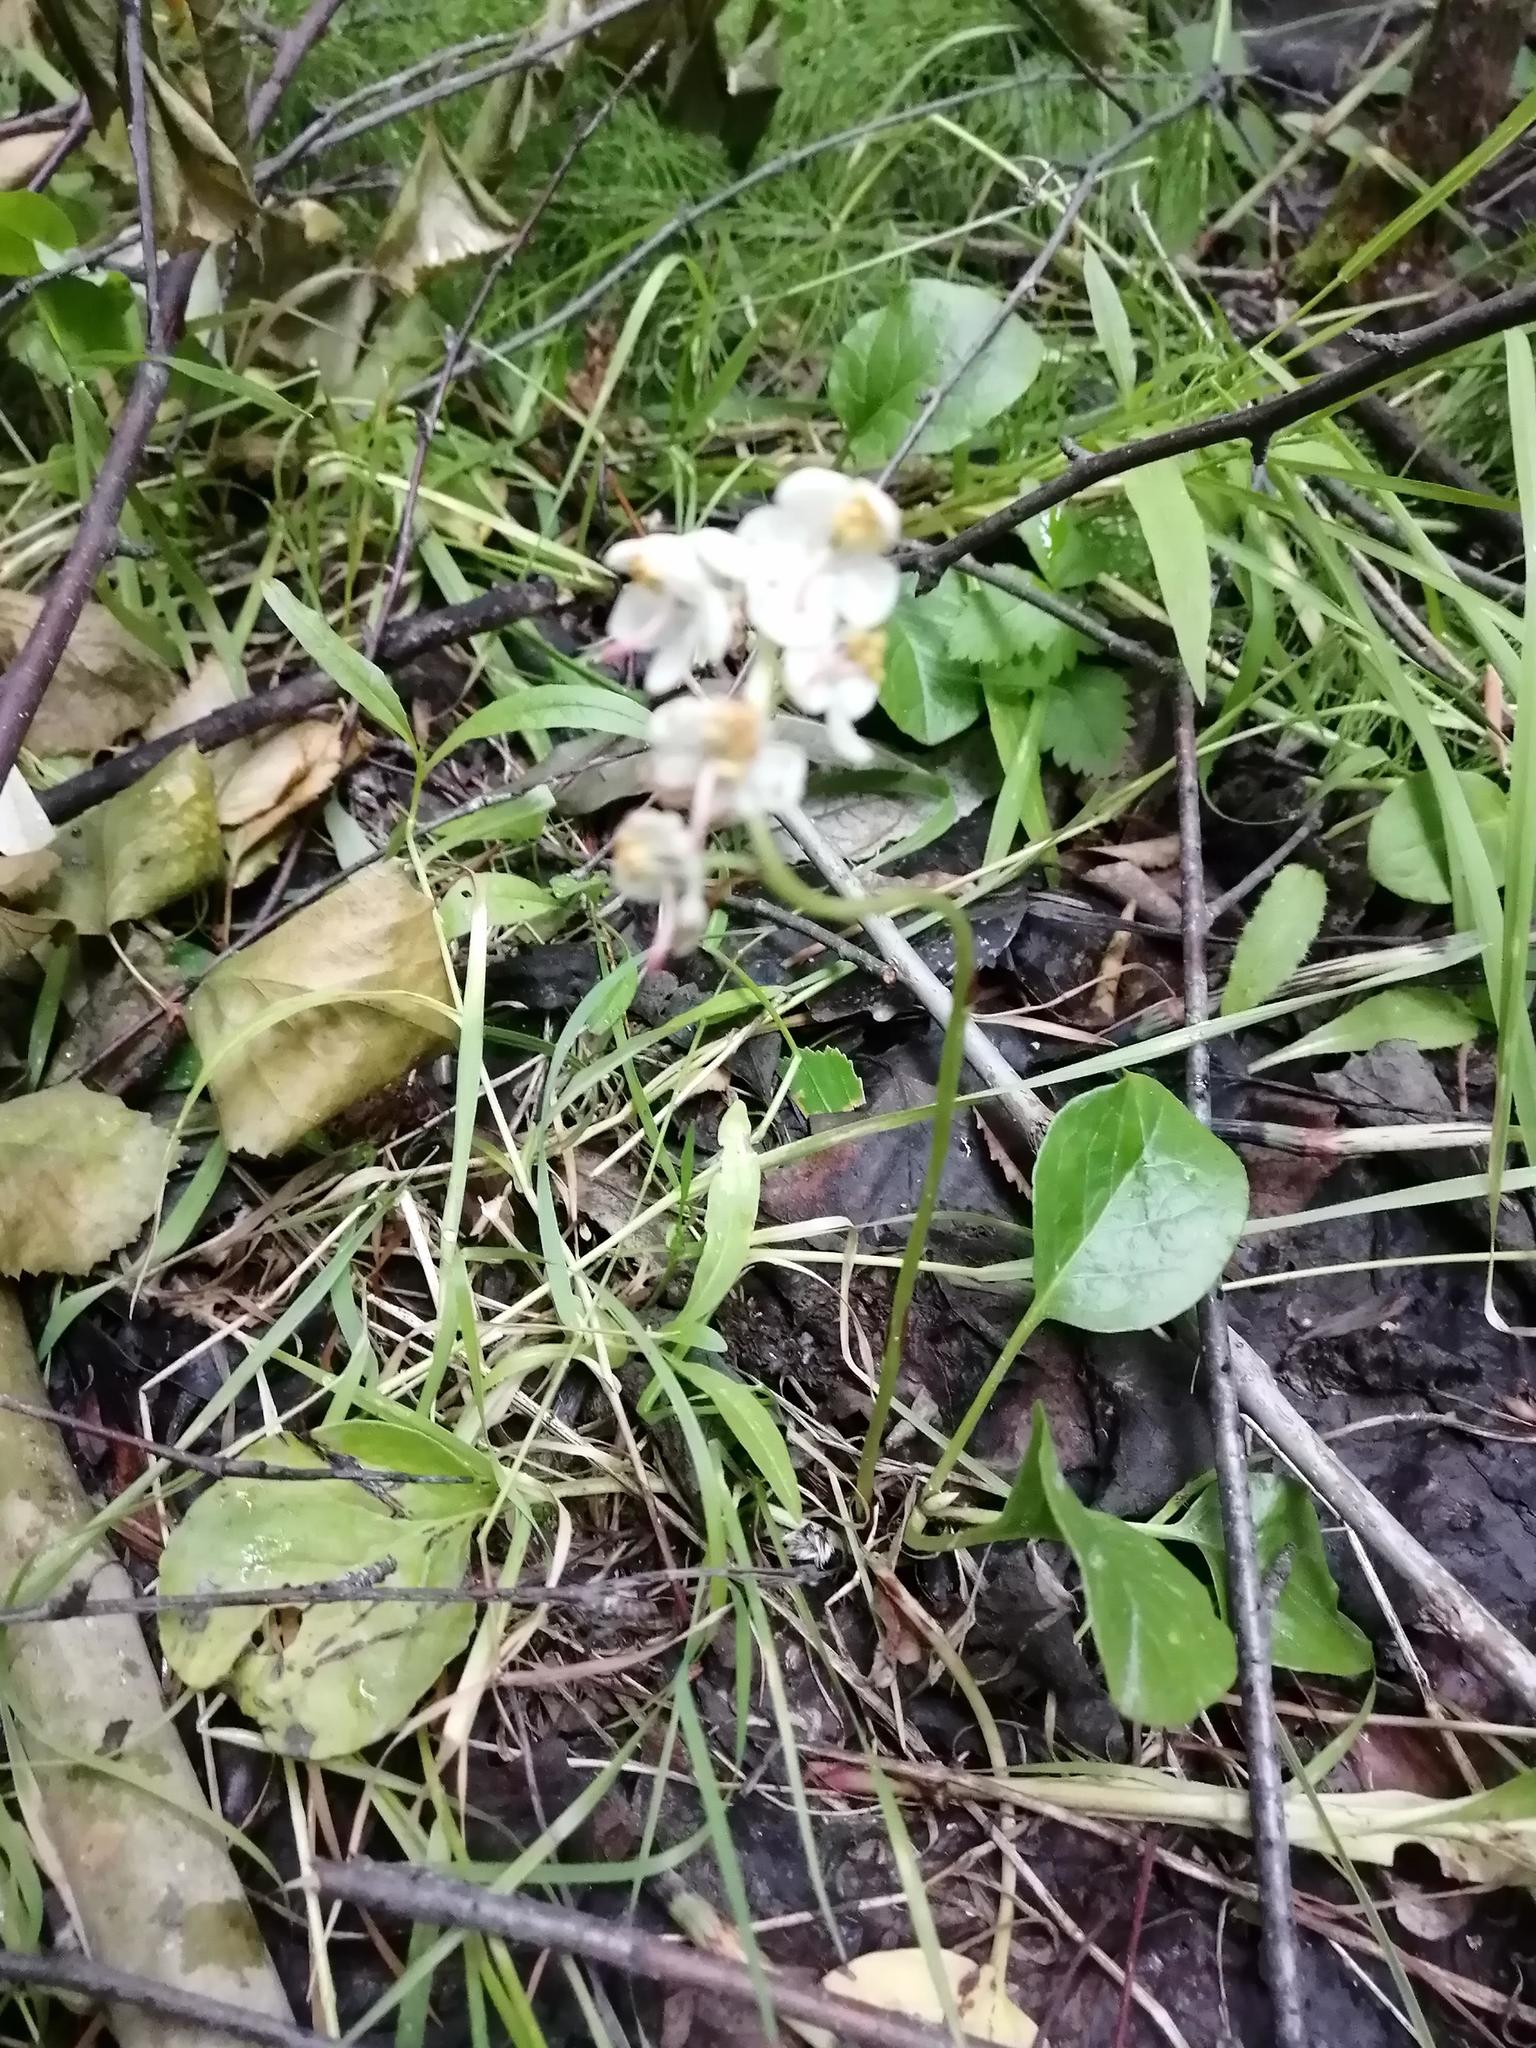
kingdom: Plantae
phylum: Tracheophyta
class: Magnoliopsida
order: Ericales
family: Ericaceae
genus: Pyrola
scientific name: Pyrola rotundifolia
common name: Round-leaved wintergreen
